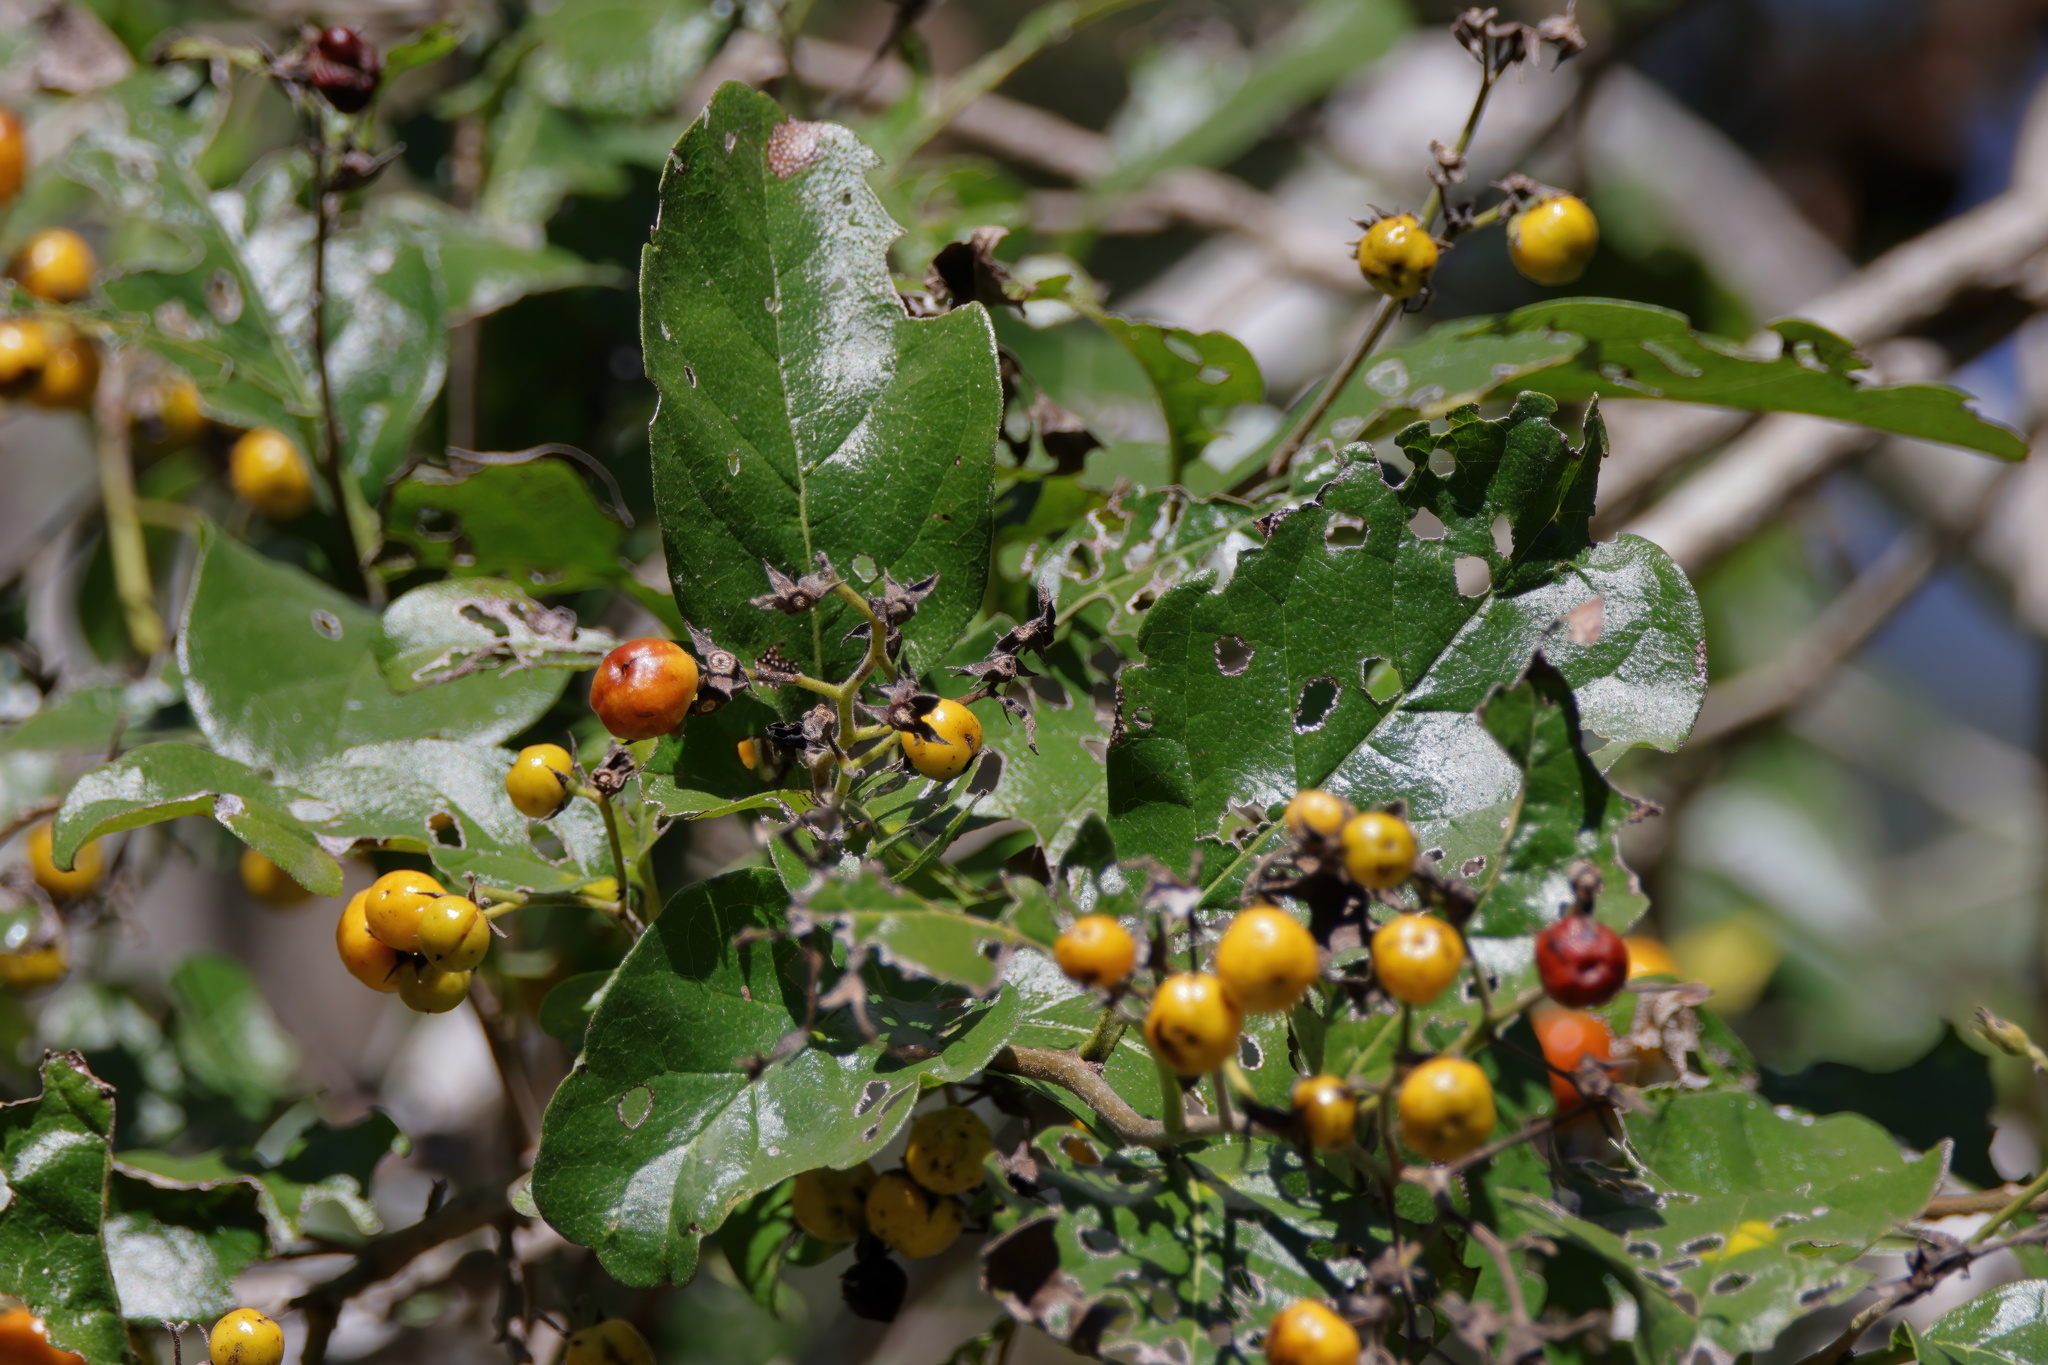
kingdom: Plantae
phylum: Tracheophyta
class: Magnoliopsida
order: Boraginales
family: Ehretiaceae
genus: Ehretia
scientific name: Ehretia anacua
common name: Sugarberry
